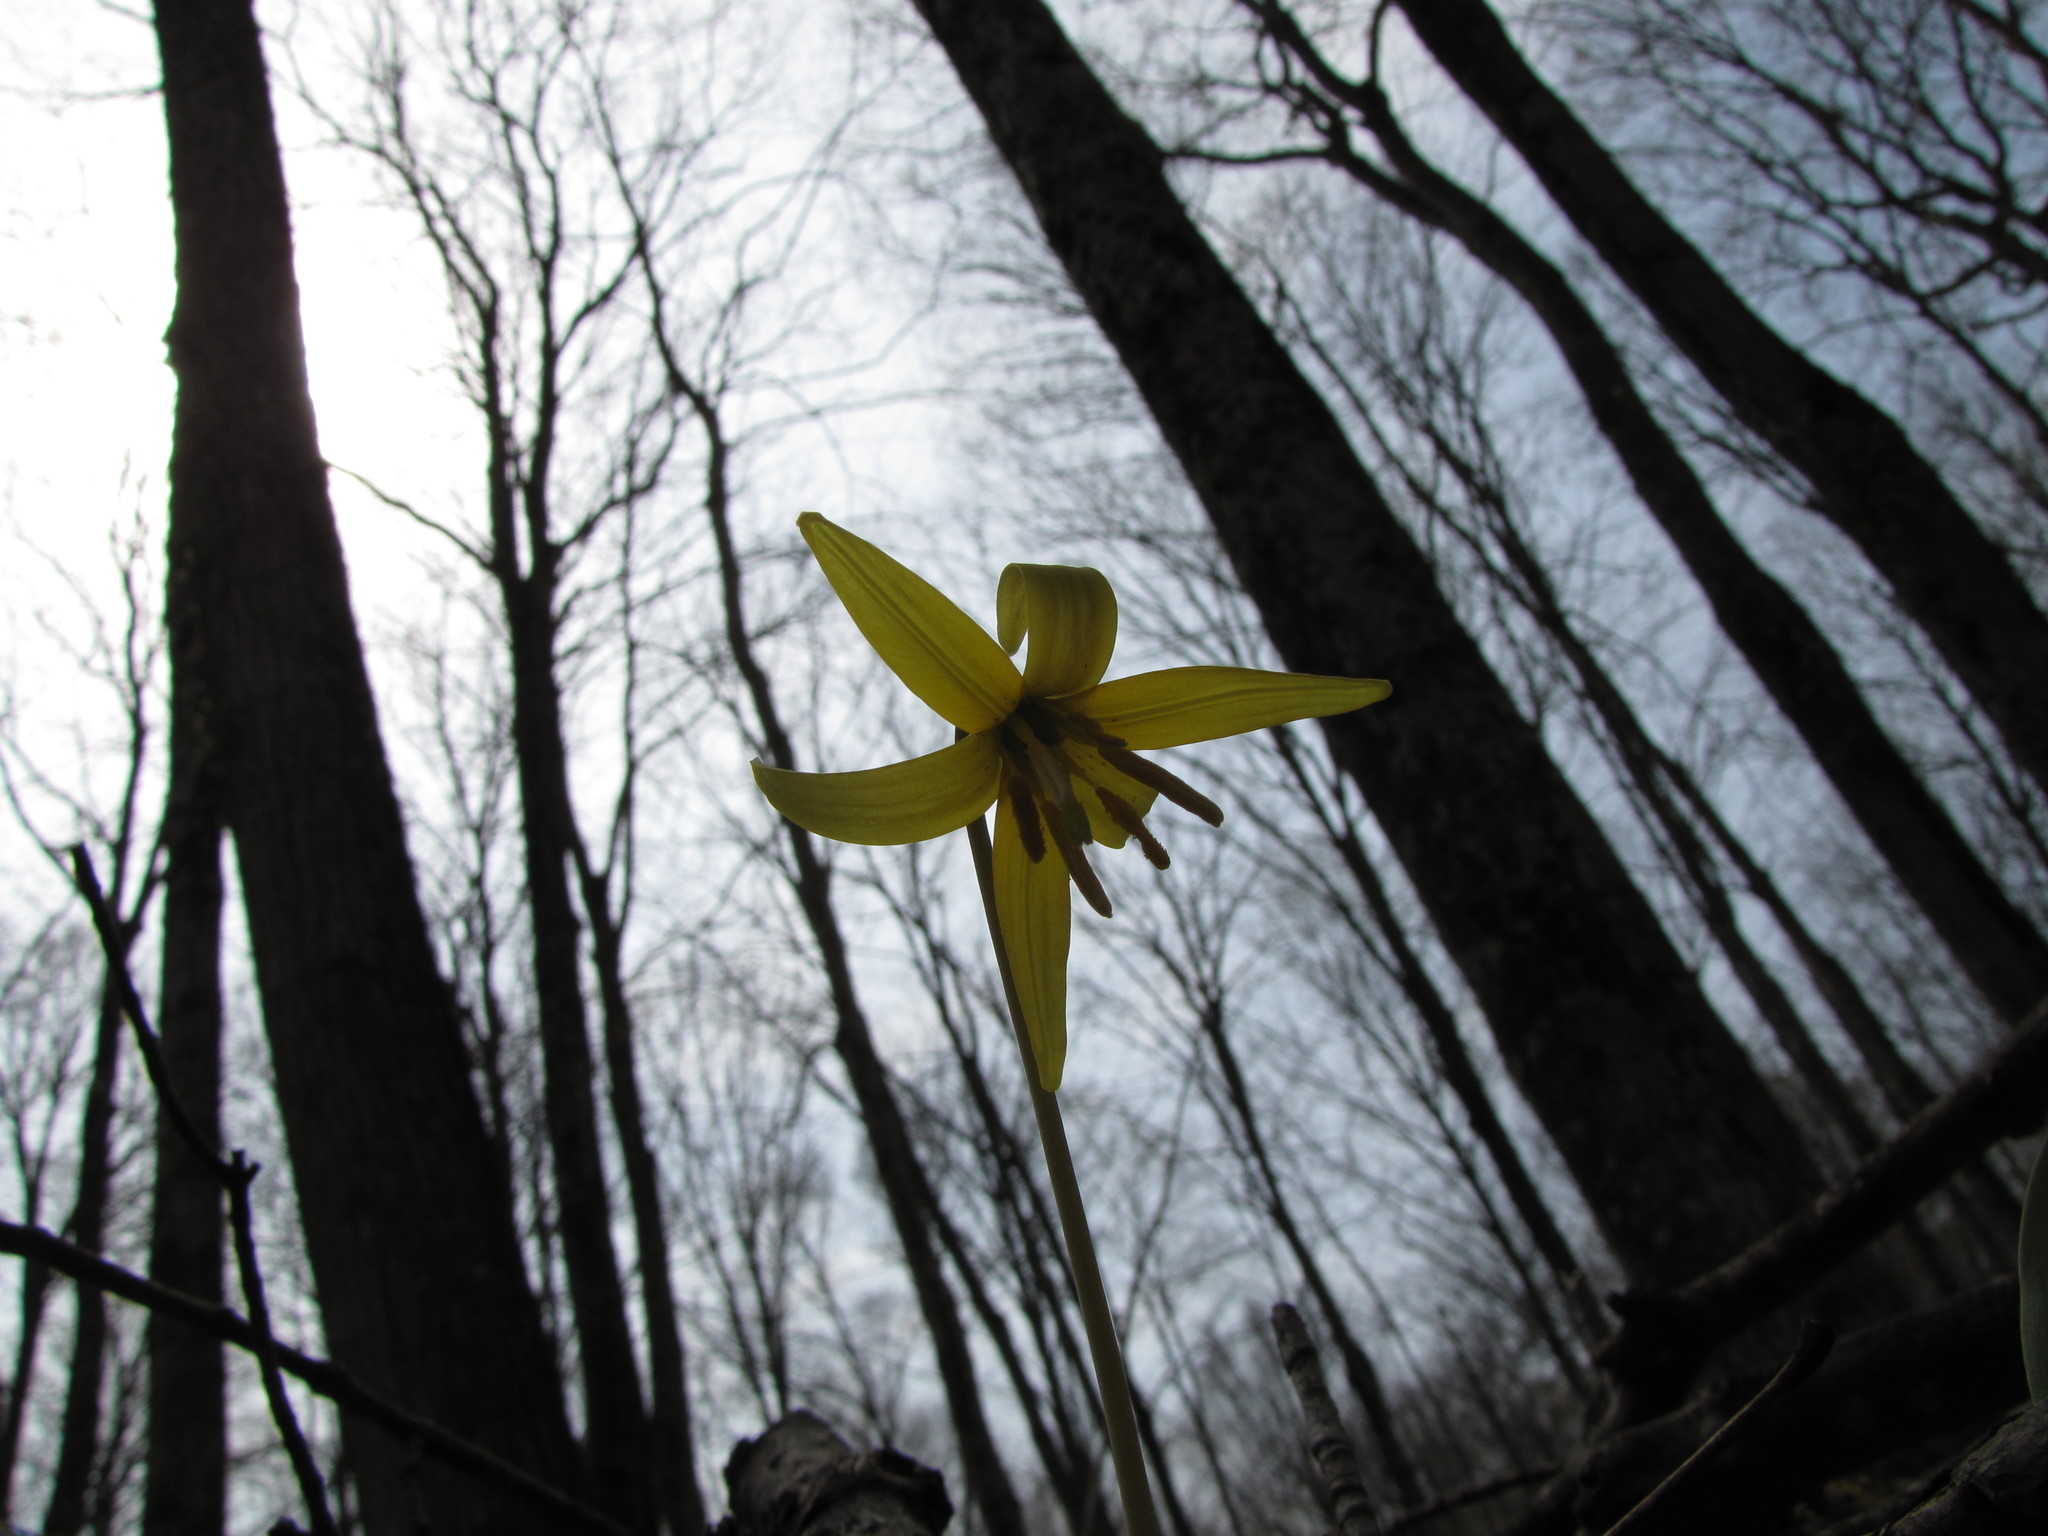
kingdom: Plantae
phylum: Tracheophyta
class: Liliopsida
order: Liliales
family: Liliaceae
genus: Erythronium
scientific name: Erythronium americanum
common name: Yellow adder's-tongue
